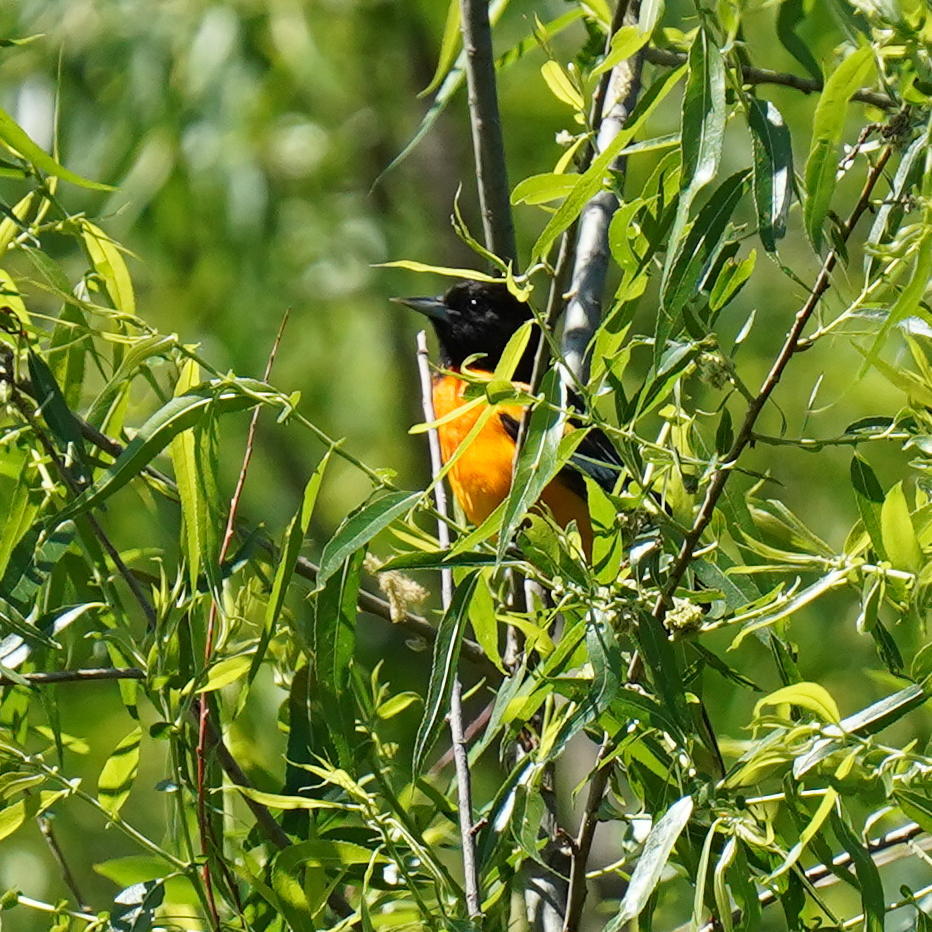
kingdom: Animalia
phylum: Chordata
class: Aves
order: Passeriformes
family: Icteridae
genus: Icterus
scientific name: Icterus galbula
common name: Baltimore oriole
